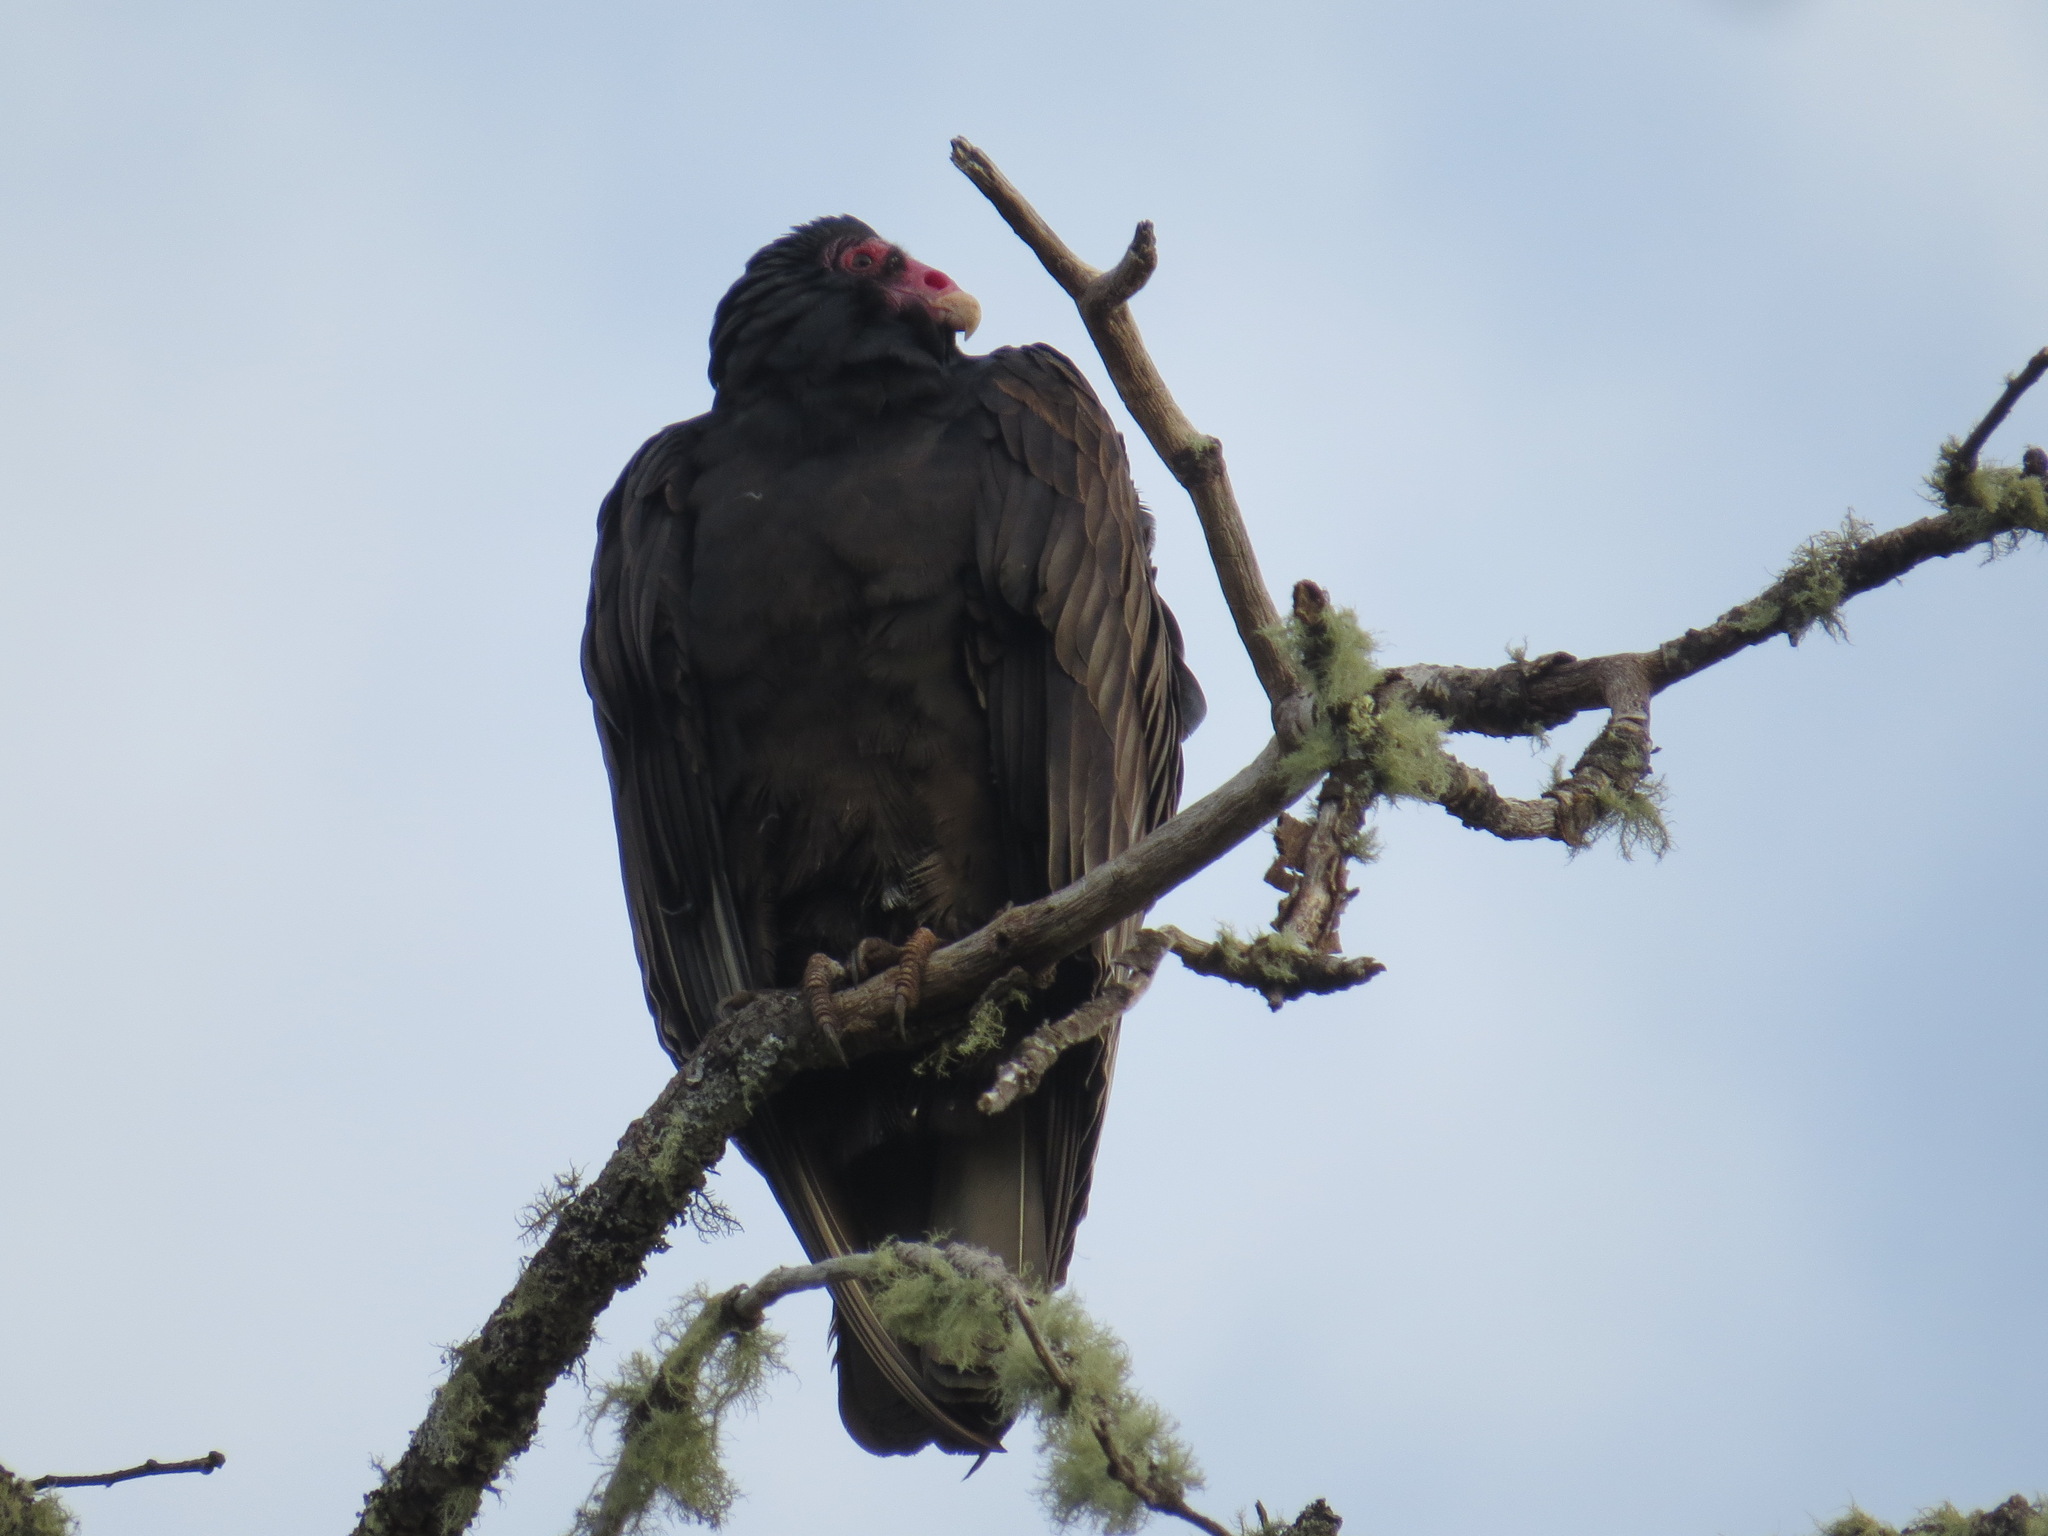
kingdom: Animalia
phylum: Chordata
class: Aves
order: Accipitriformes
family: Cathartidae
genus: Cathartes
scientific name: Cathartes aura
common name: Turkey vulture
